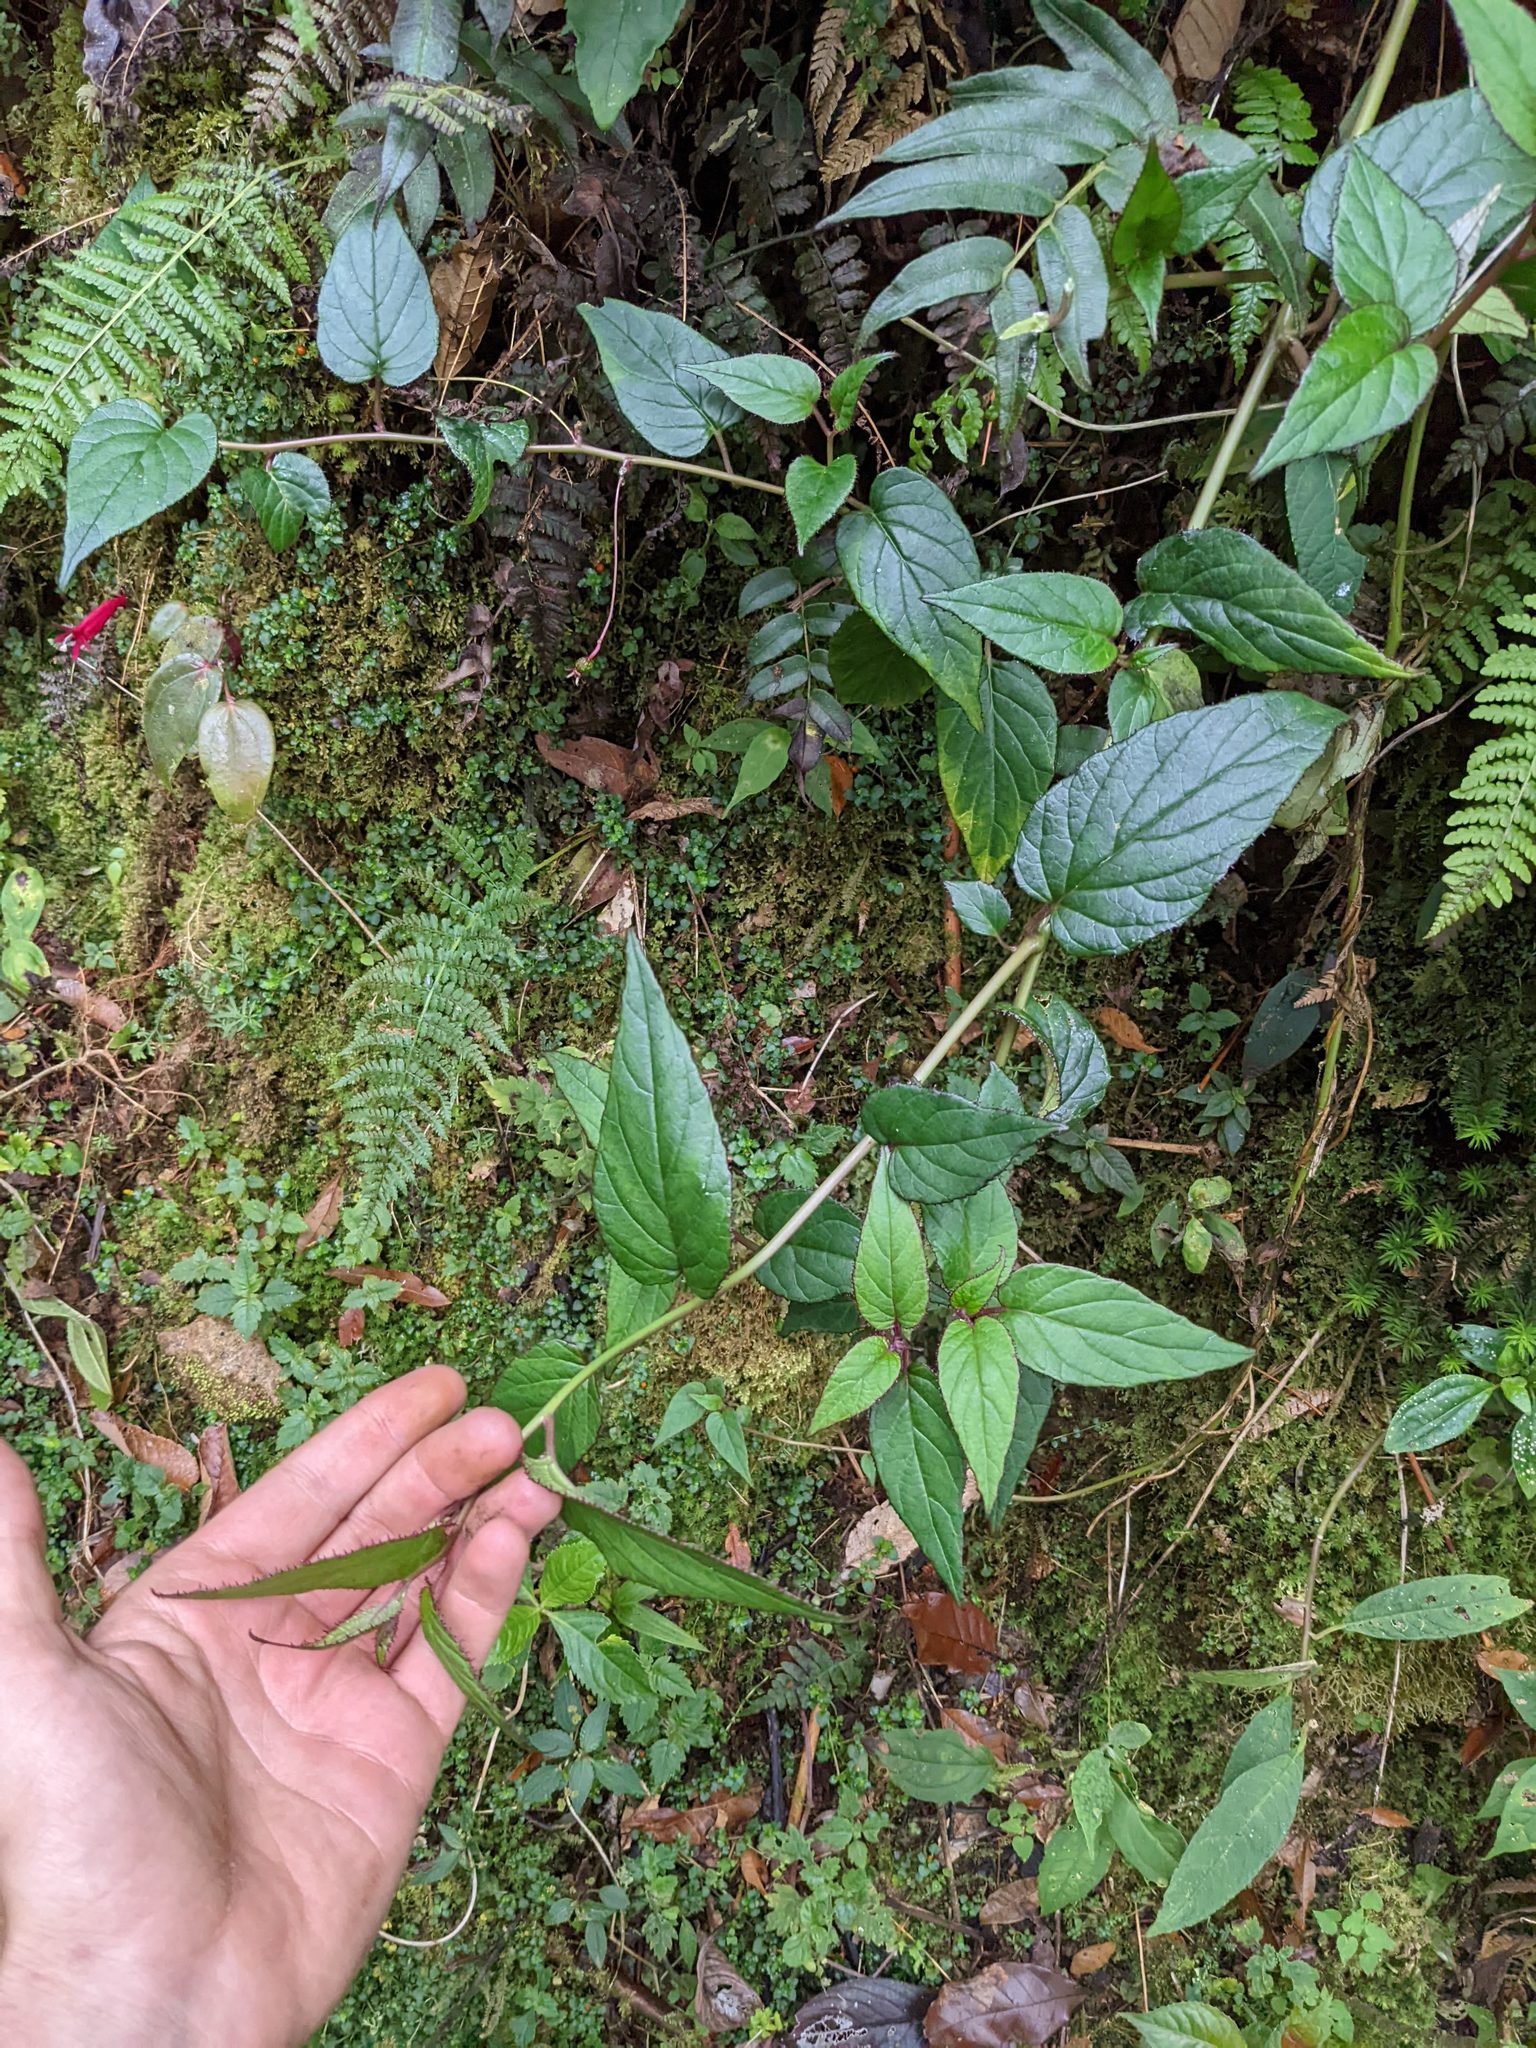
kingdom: Plantae
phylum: Tracheophyta
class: Magnoliopsida
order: Asterales
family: Campanulaceae
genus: Centropogon
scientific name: Centropogon costaricae
